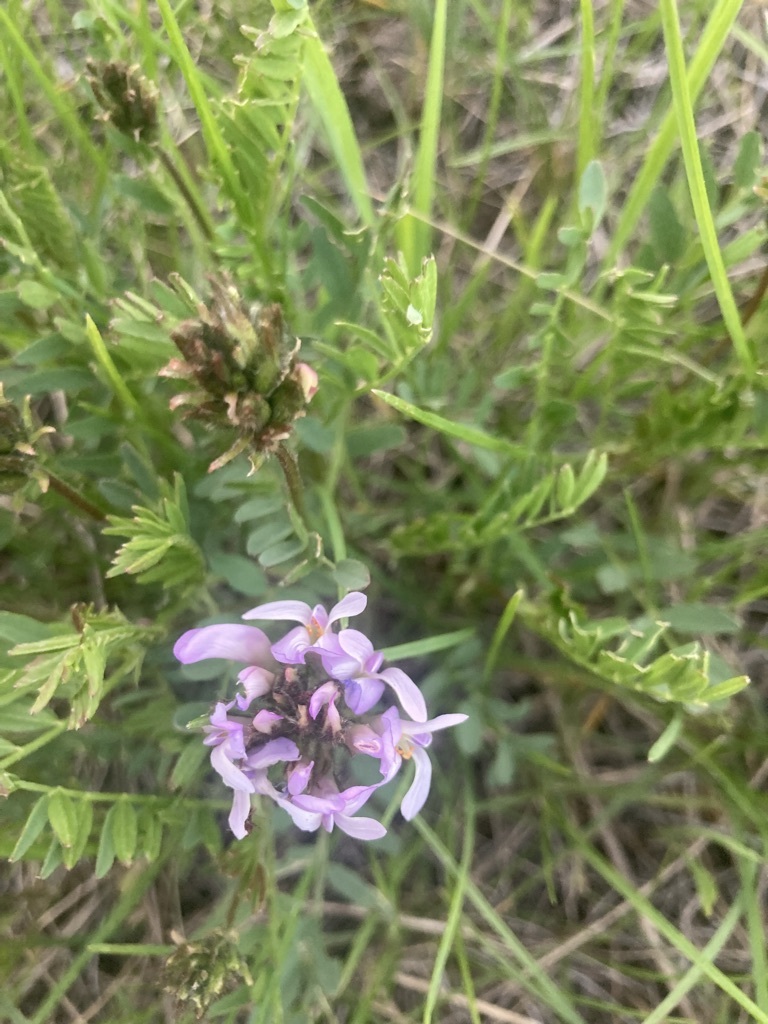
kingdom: Plantae
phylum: Tracheophyta
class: Magnoliopsida
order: Fabales
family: Fabaceae
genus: Astragalus
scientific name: Astragalus agrestis
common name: Field milk-vetch
